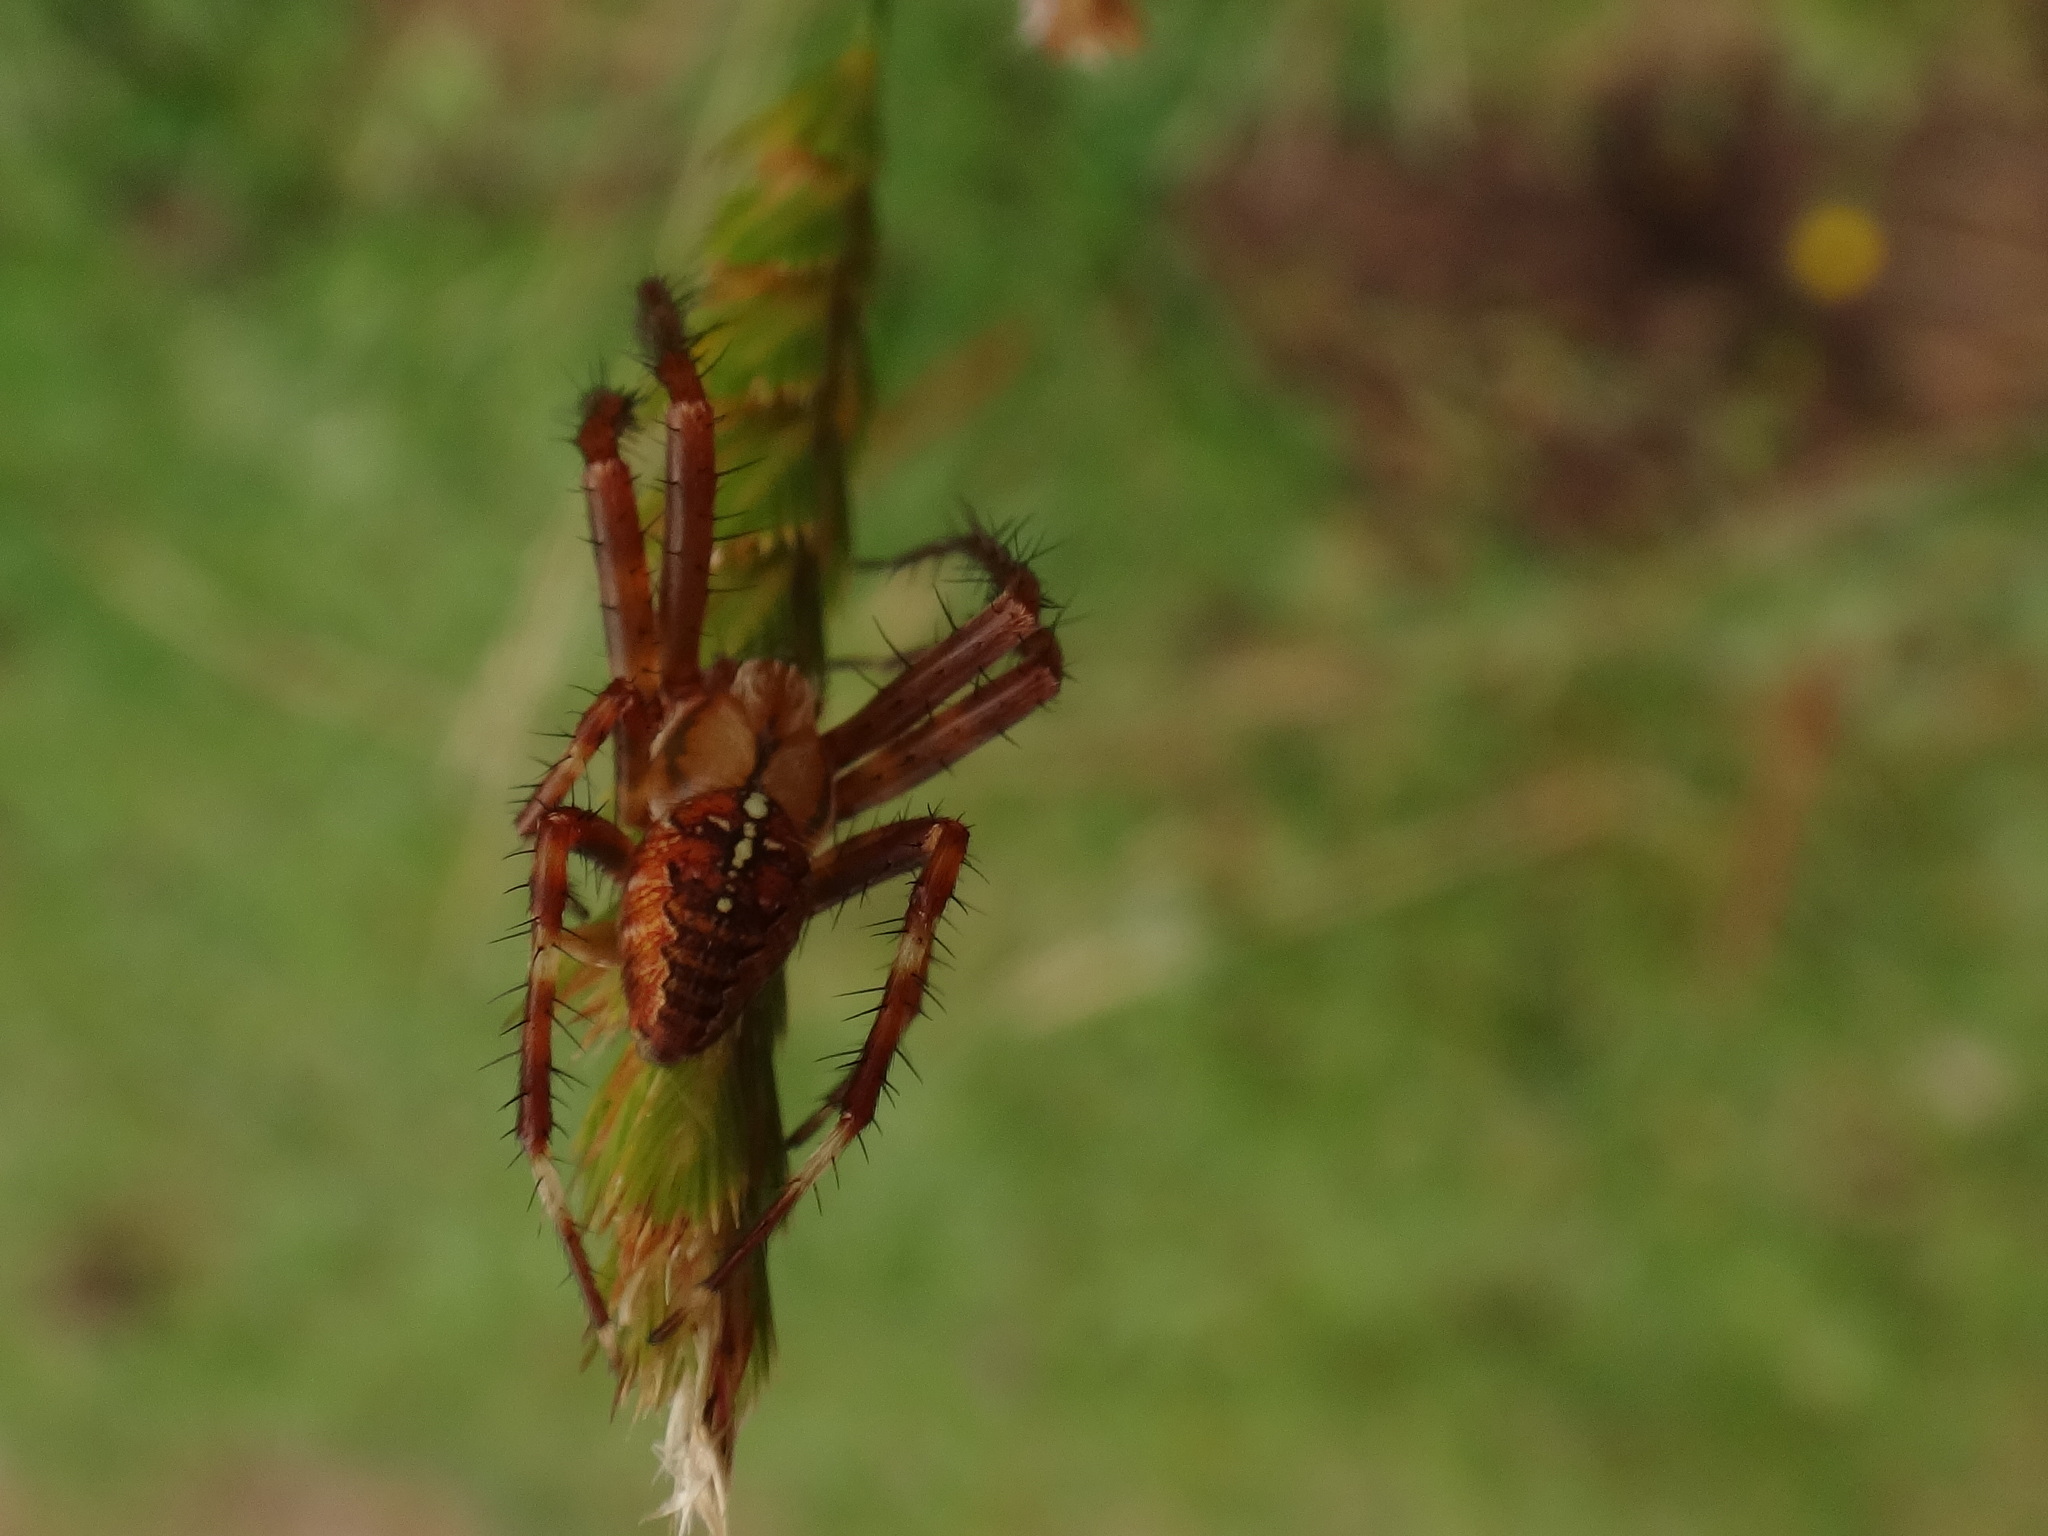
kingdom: Animalia
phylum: Arthropoda
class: Arachnida
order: Araneae
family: Araneidae
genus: Araneus
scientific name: Araneus diadematus
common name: Cross orbweaver
